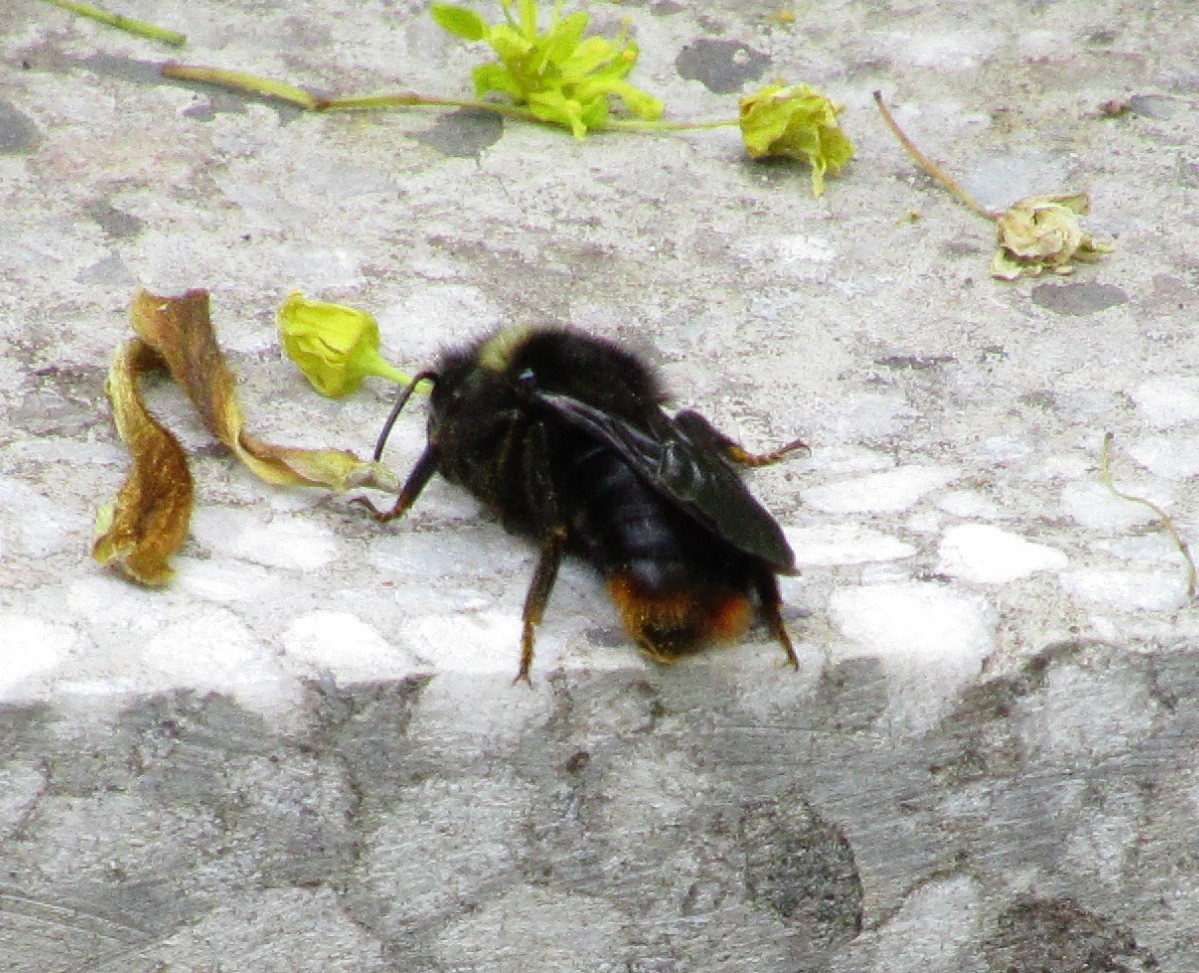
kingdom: Animalia
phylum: Arthropoda
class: Insecta
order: Hymenoptera
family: Apidae
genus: Bombus
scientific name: Bombus rupestris
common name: Hill cuckoo-bee
